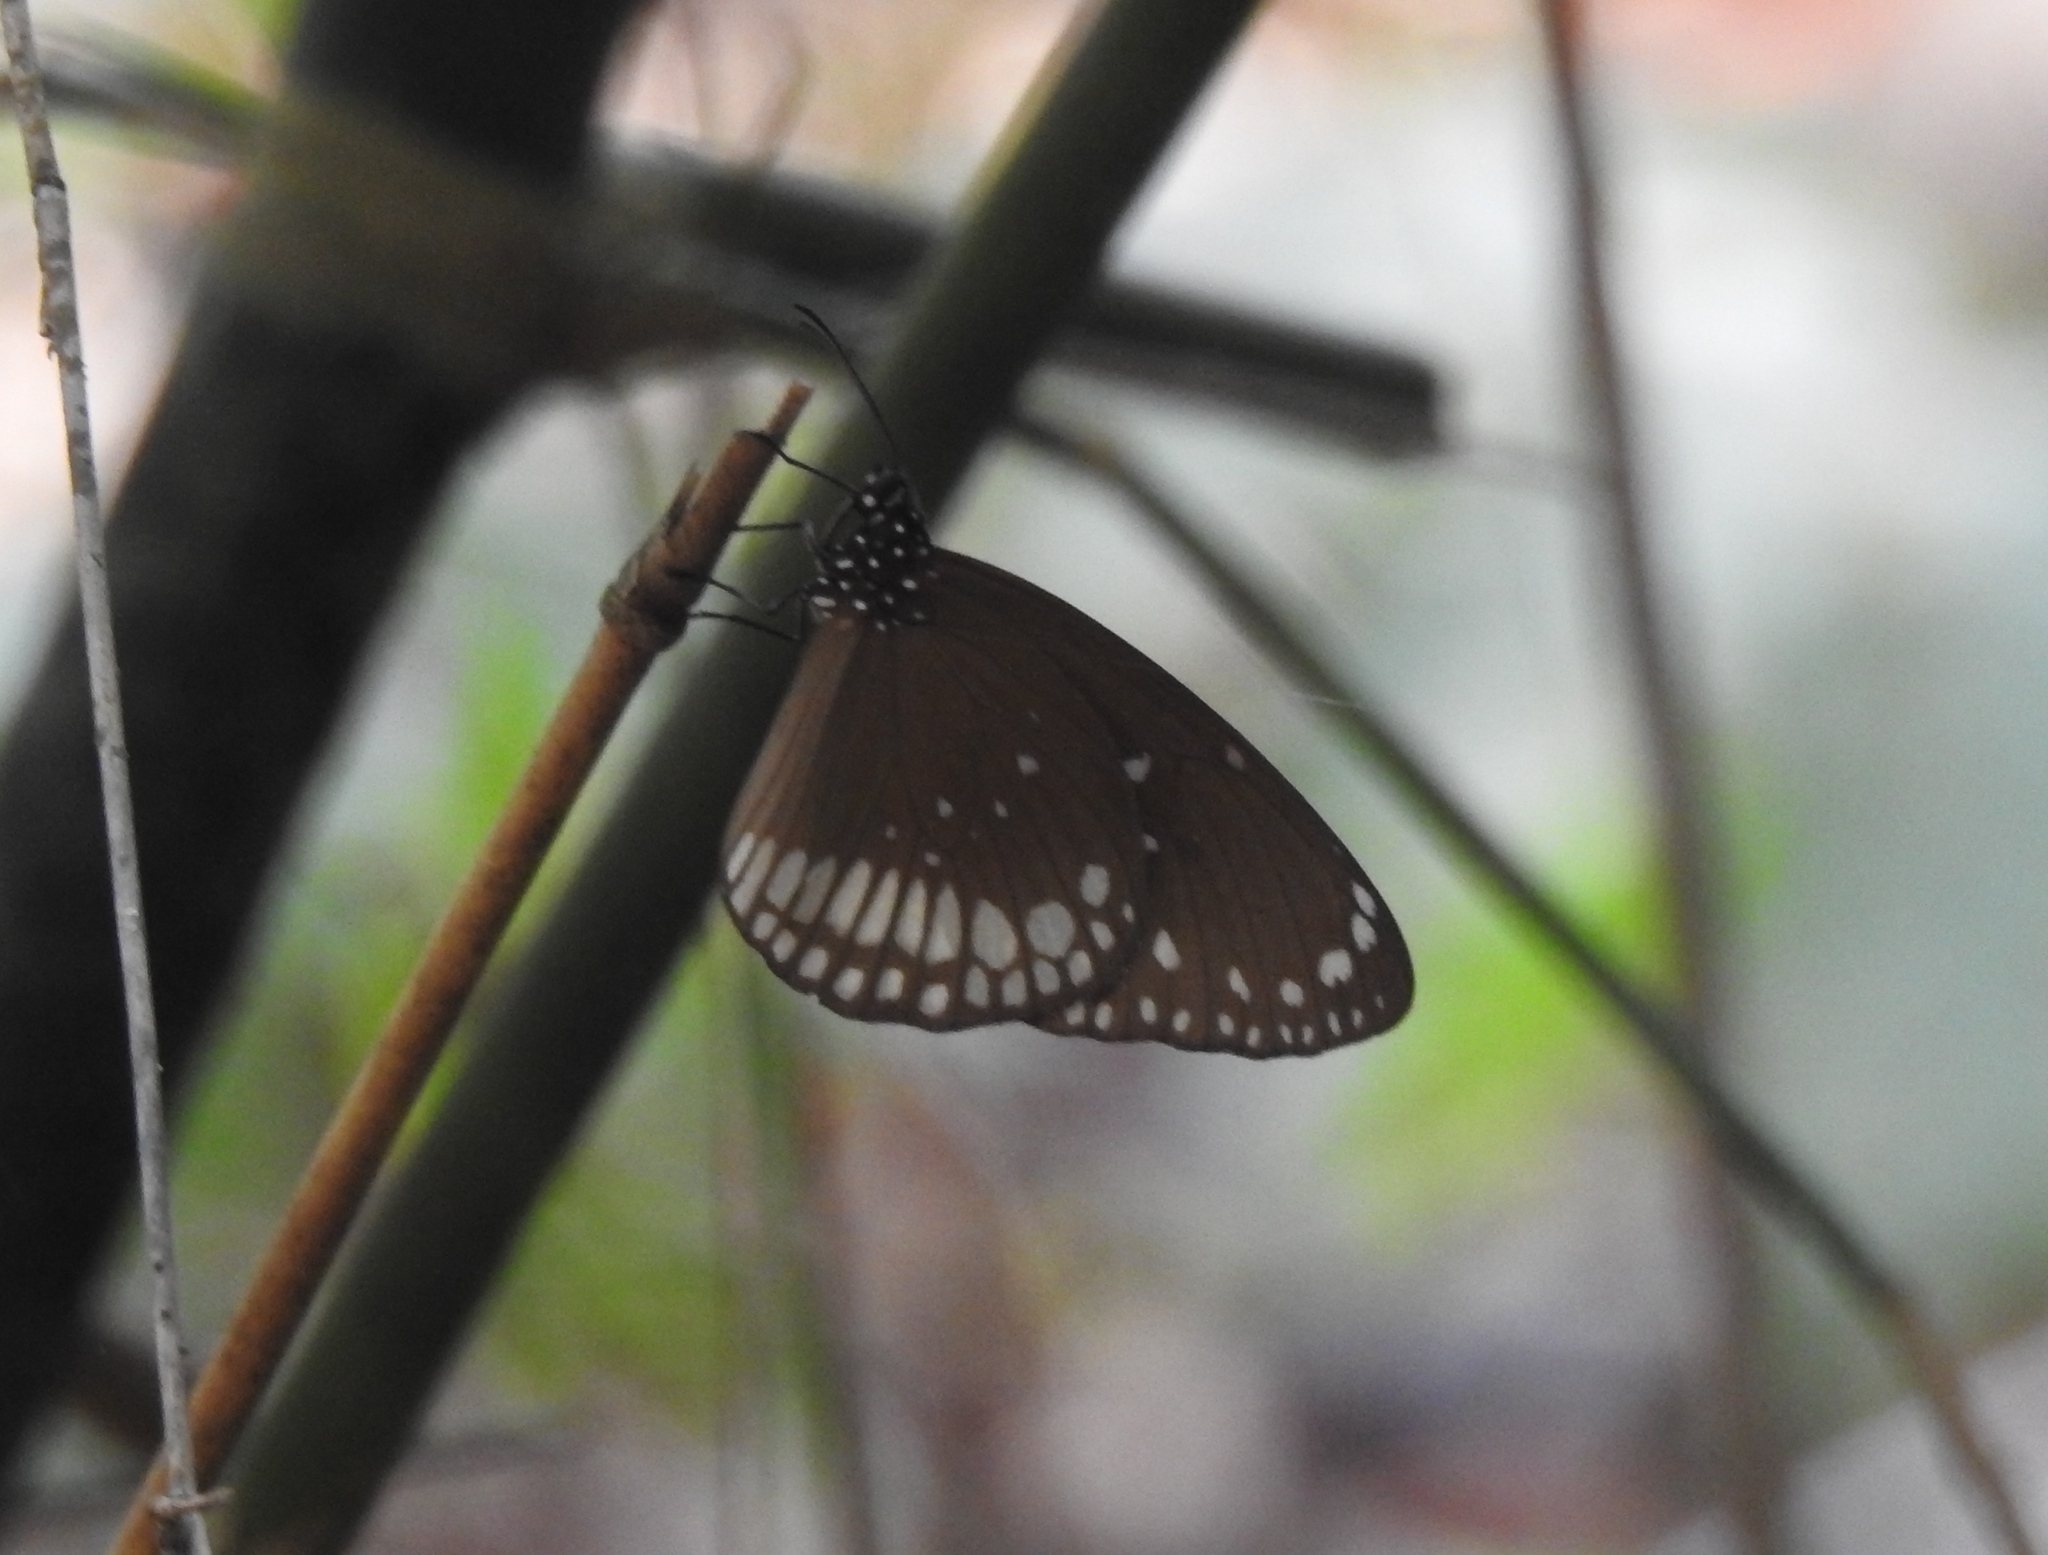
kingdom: Animalia
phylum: Arthropoda
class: Insecta
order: Lepidoptera
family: Nymphalidae
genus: Euploea
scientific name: Euploea core
